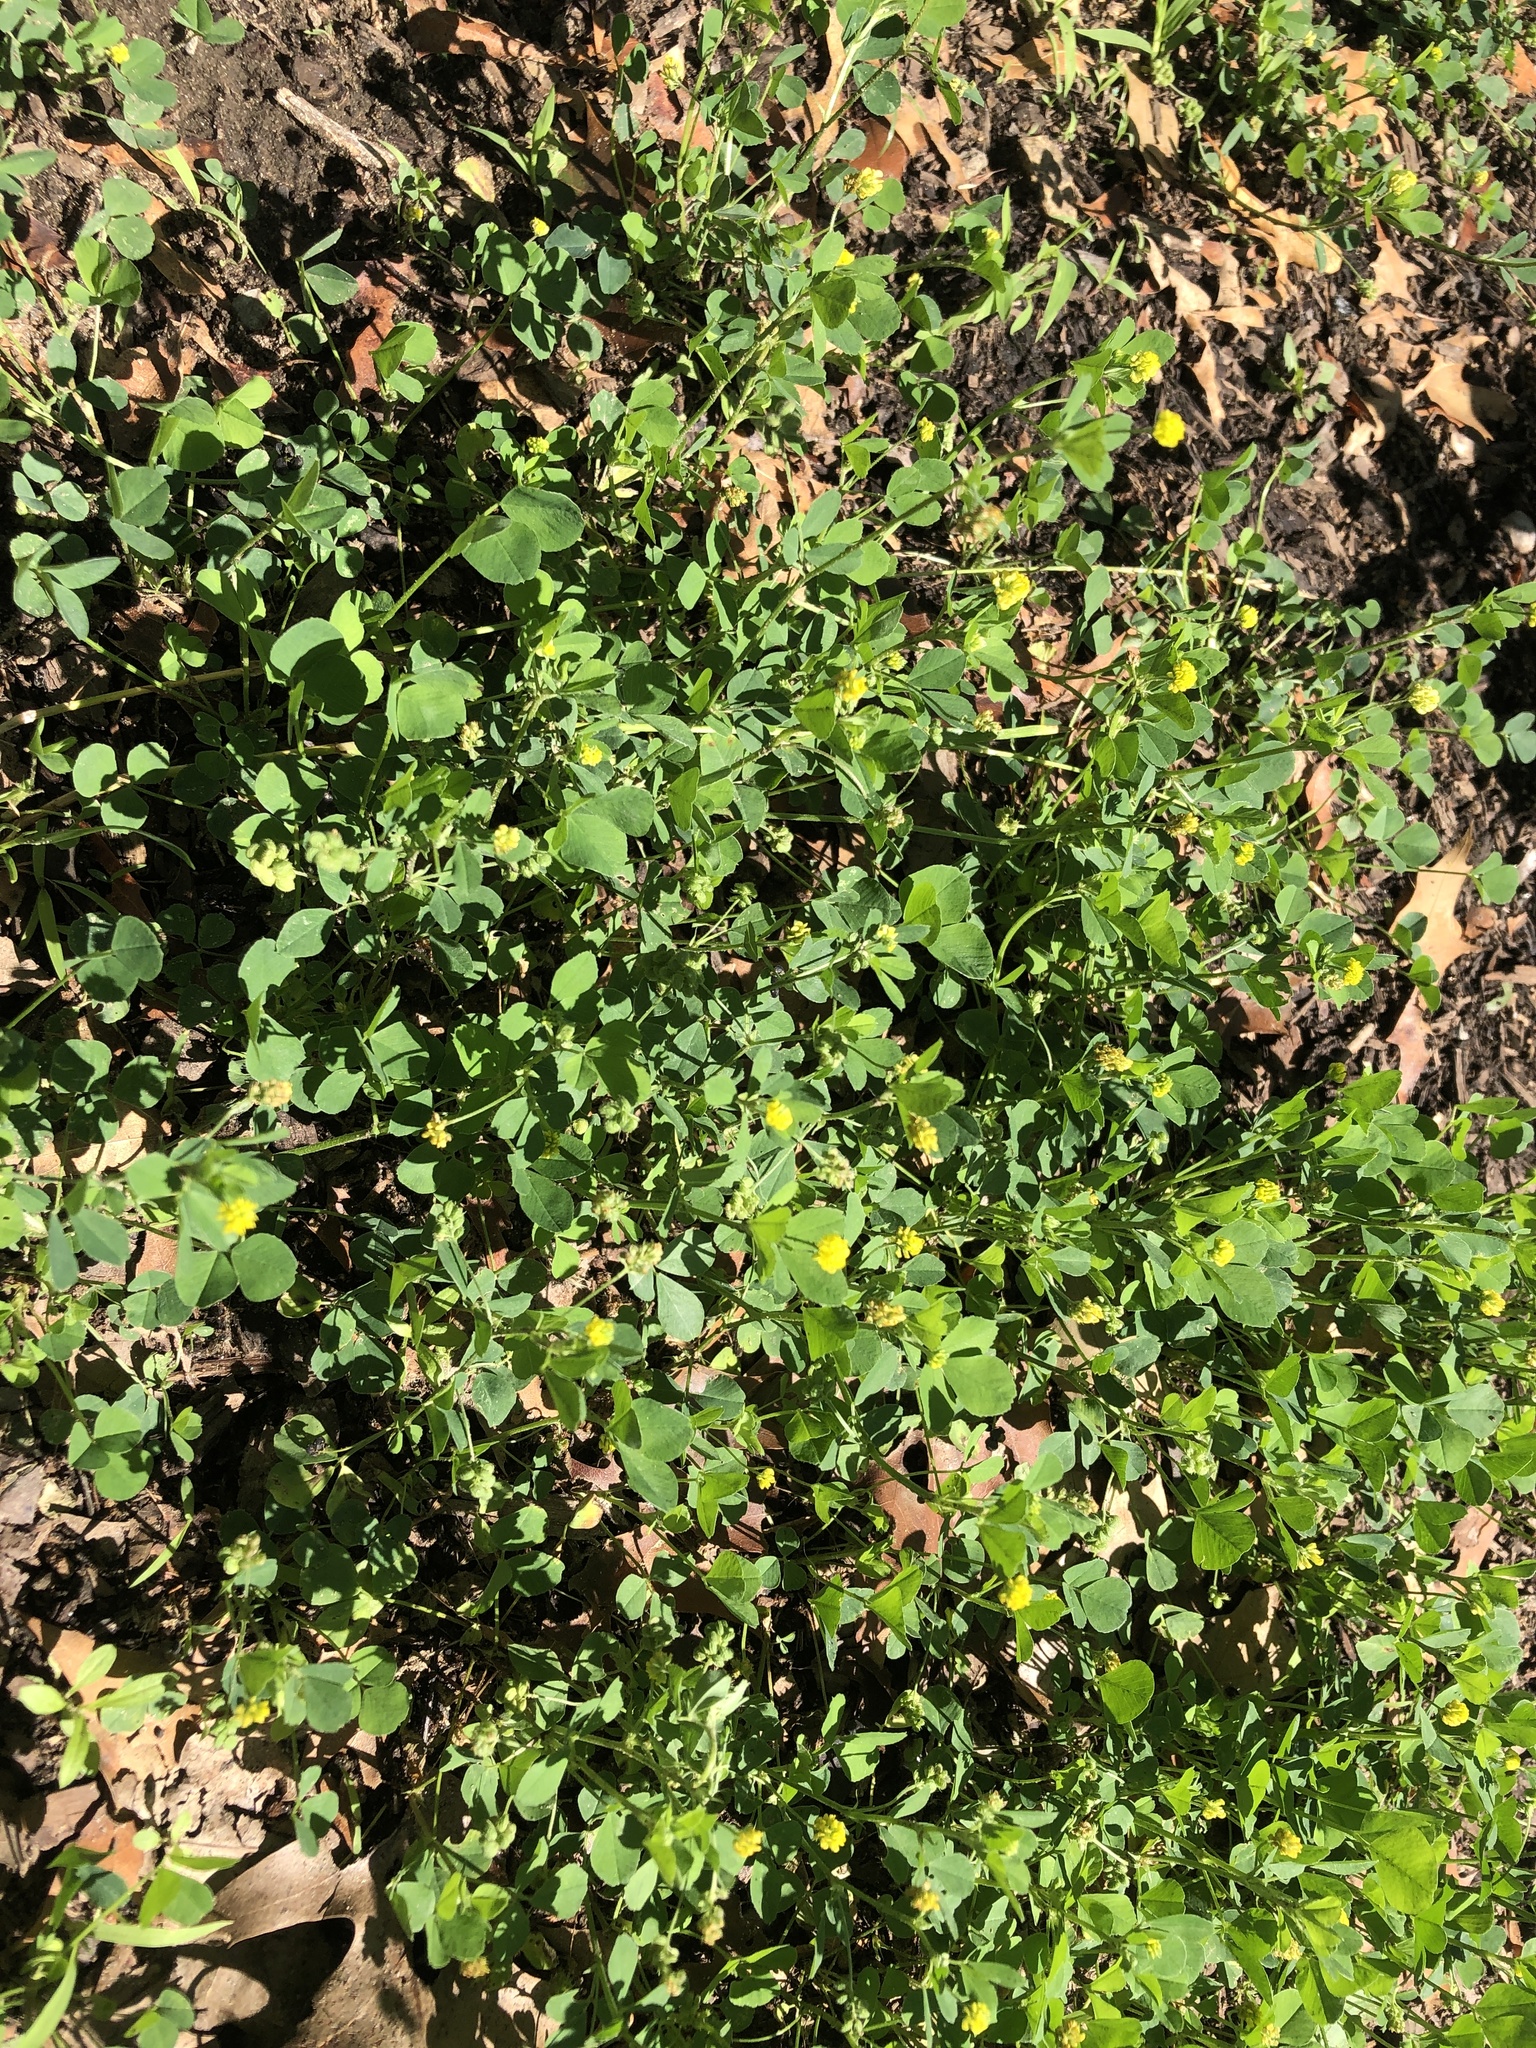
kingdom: Plantae
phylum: Tracheophyta
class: Magnoliopsida
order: Fabales
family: Fabaceae
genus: Medicago
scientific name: Medicago lupulina
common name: Black medick
